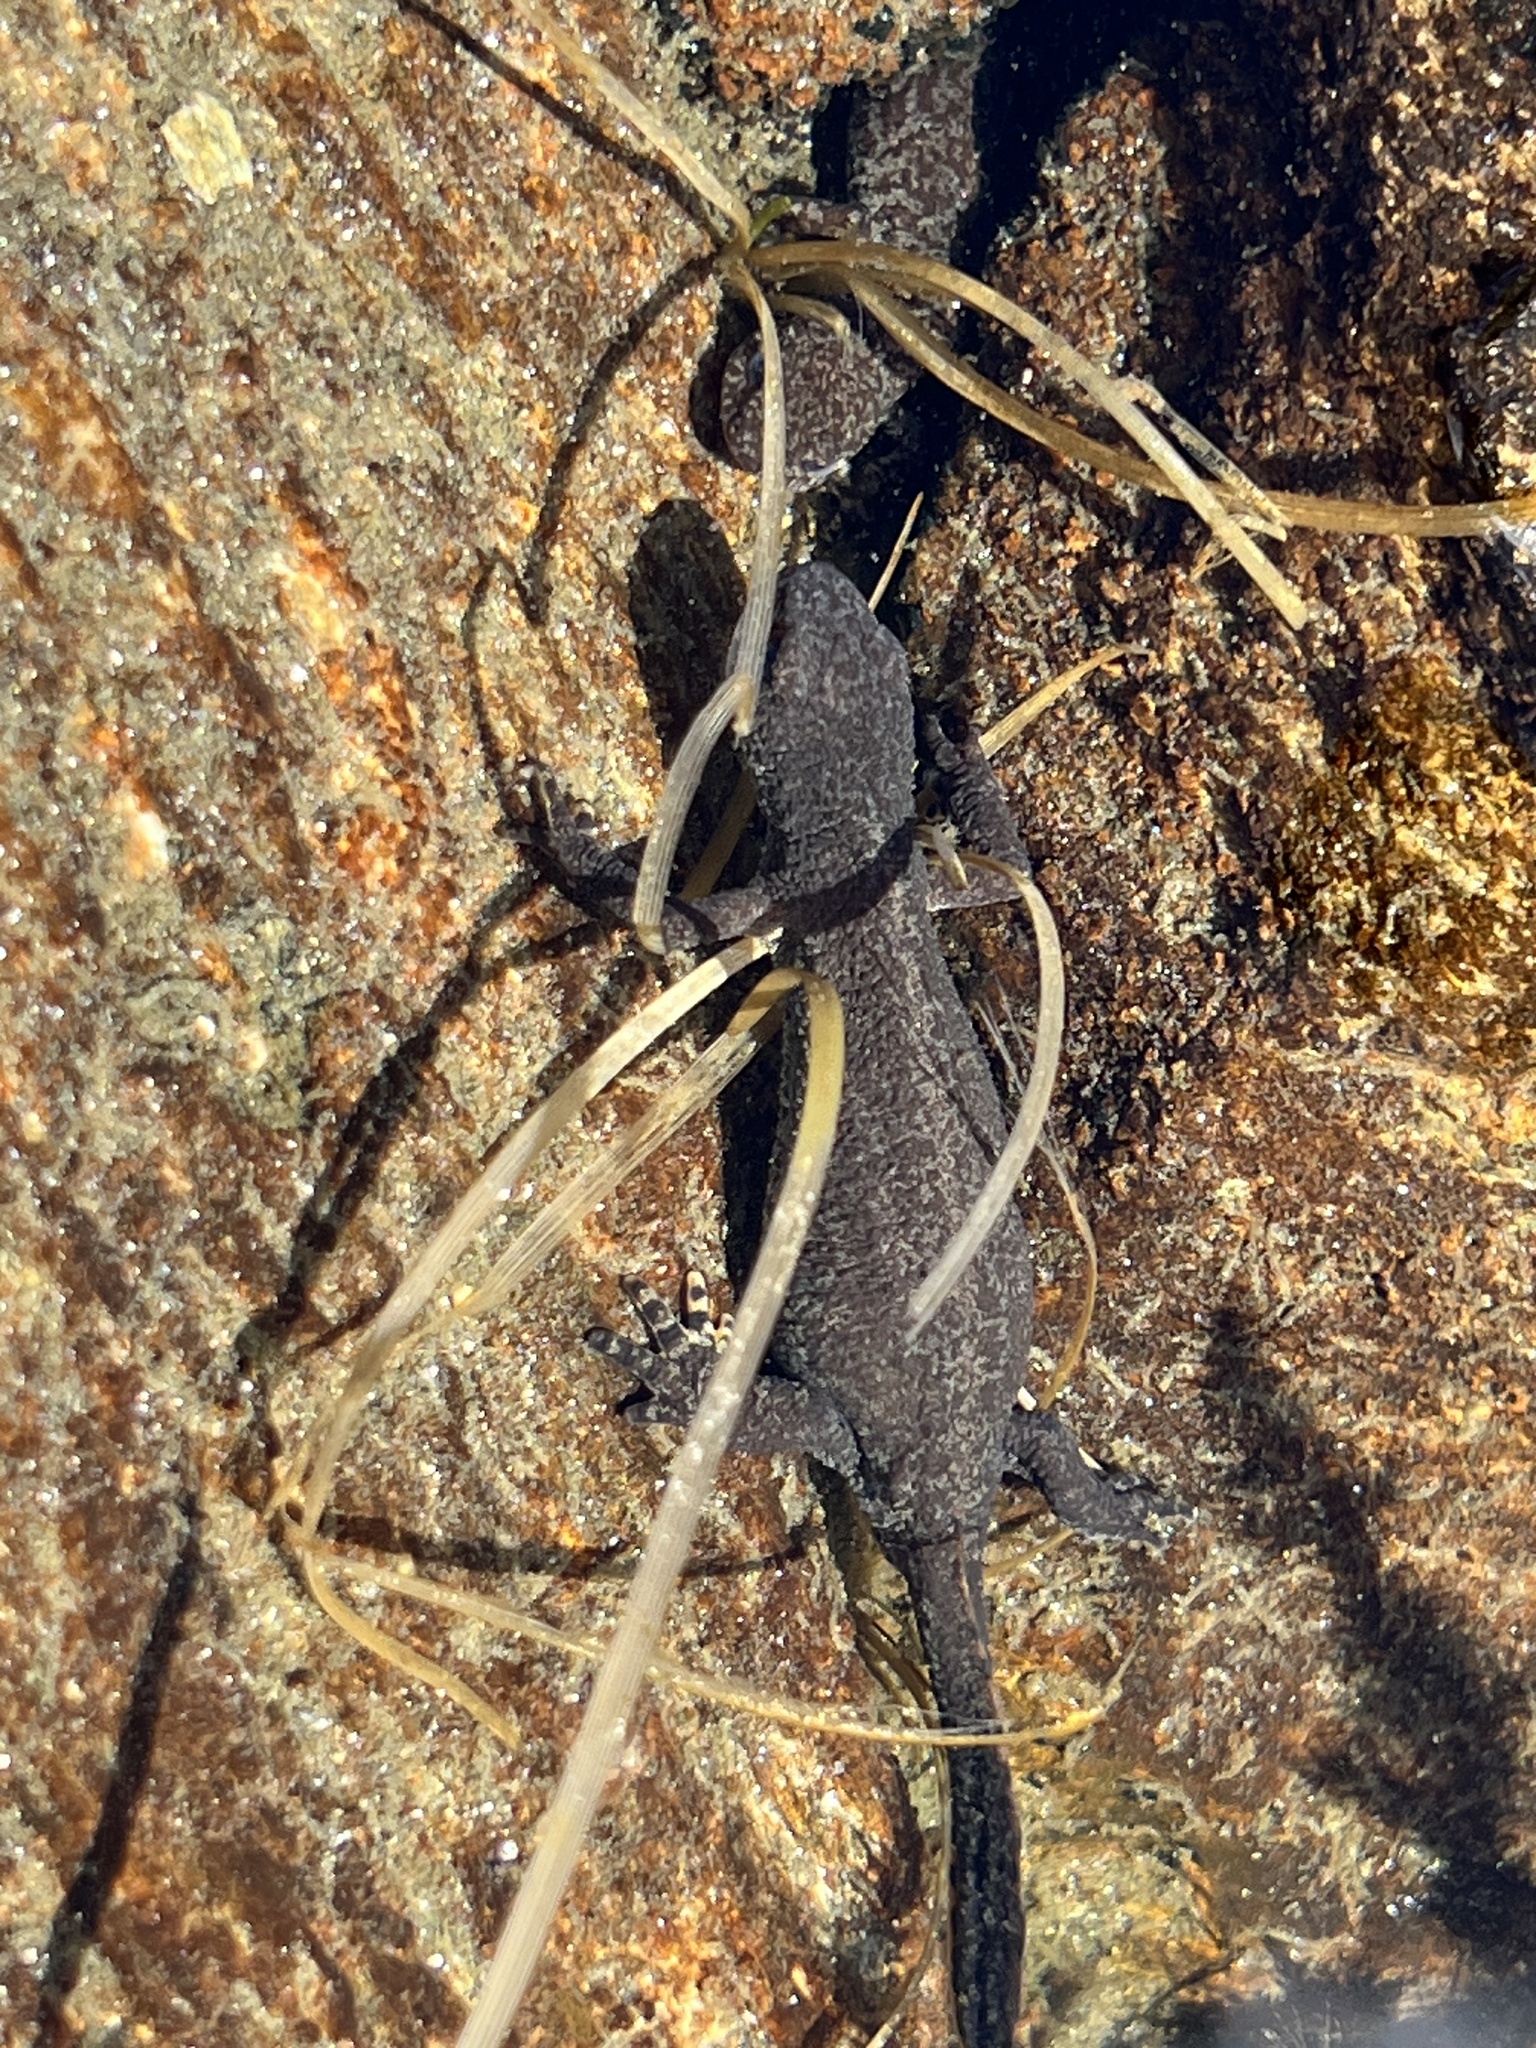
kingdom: Animalia
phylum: Chordata
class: Amphibia
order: Caudata
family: Salamandridae
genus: Ichthyosaura
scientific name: Ichthyosaura alpestris
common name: Alpine newt
